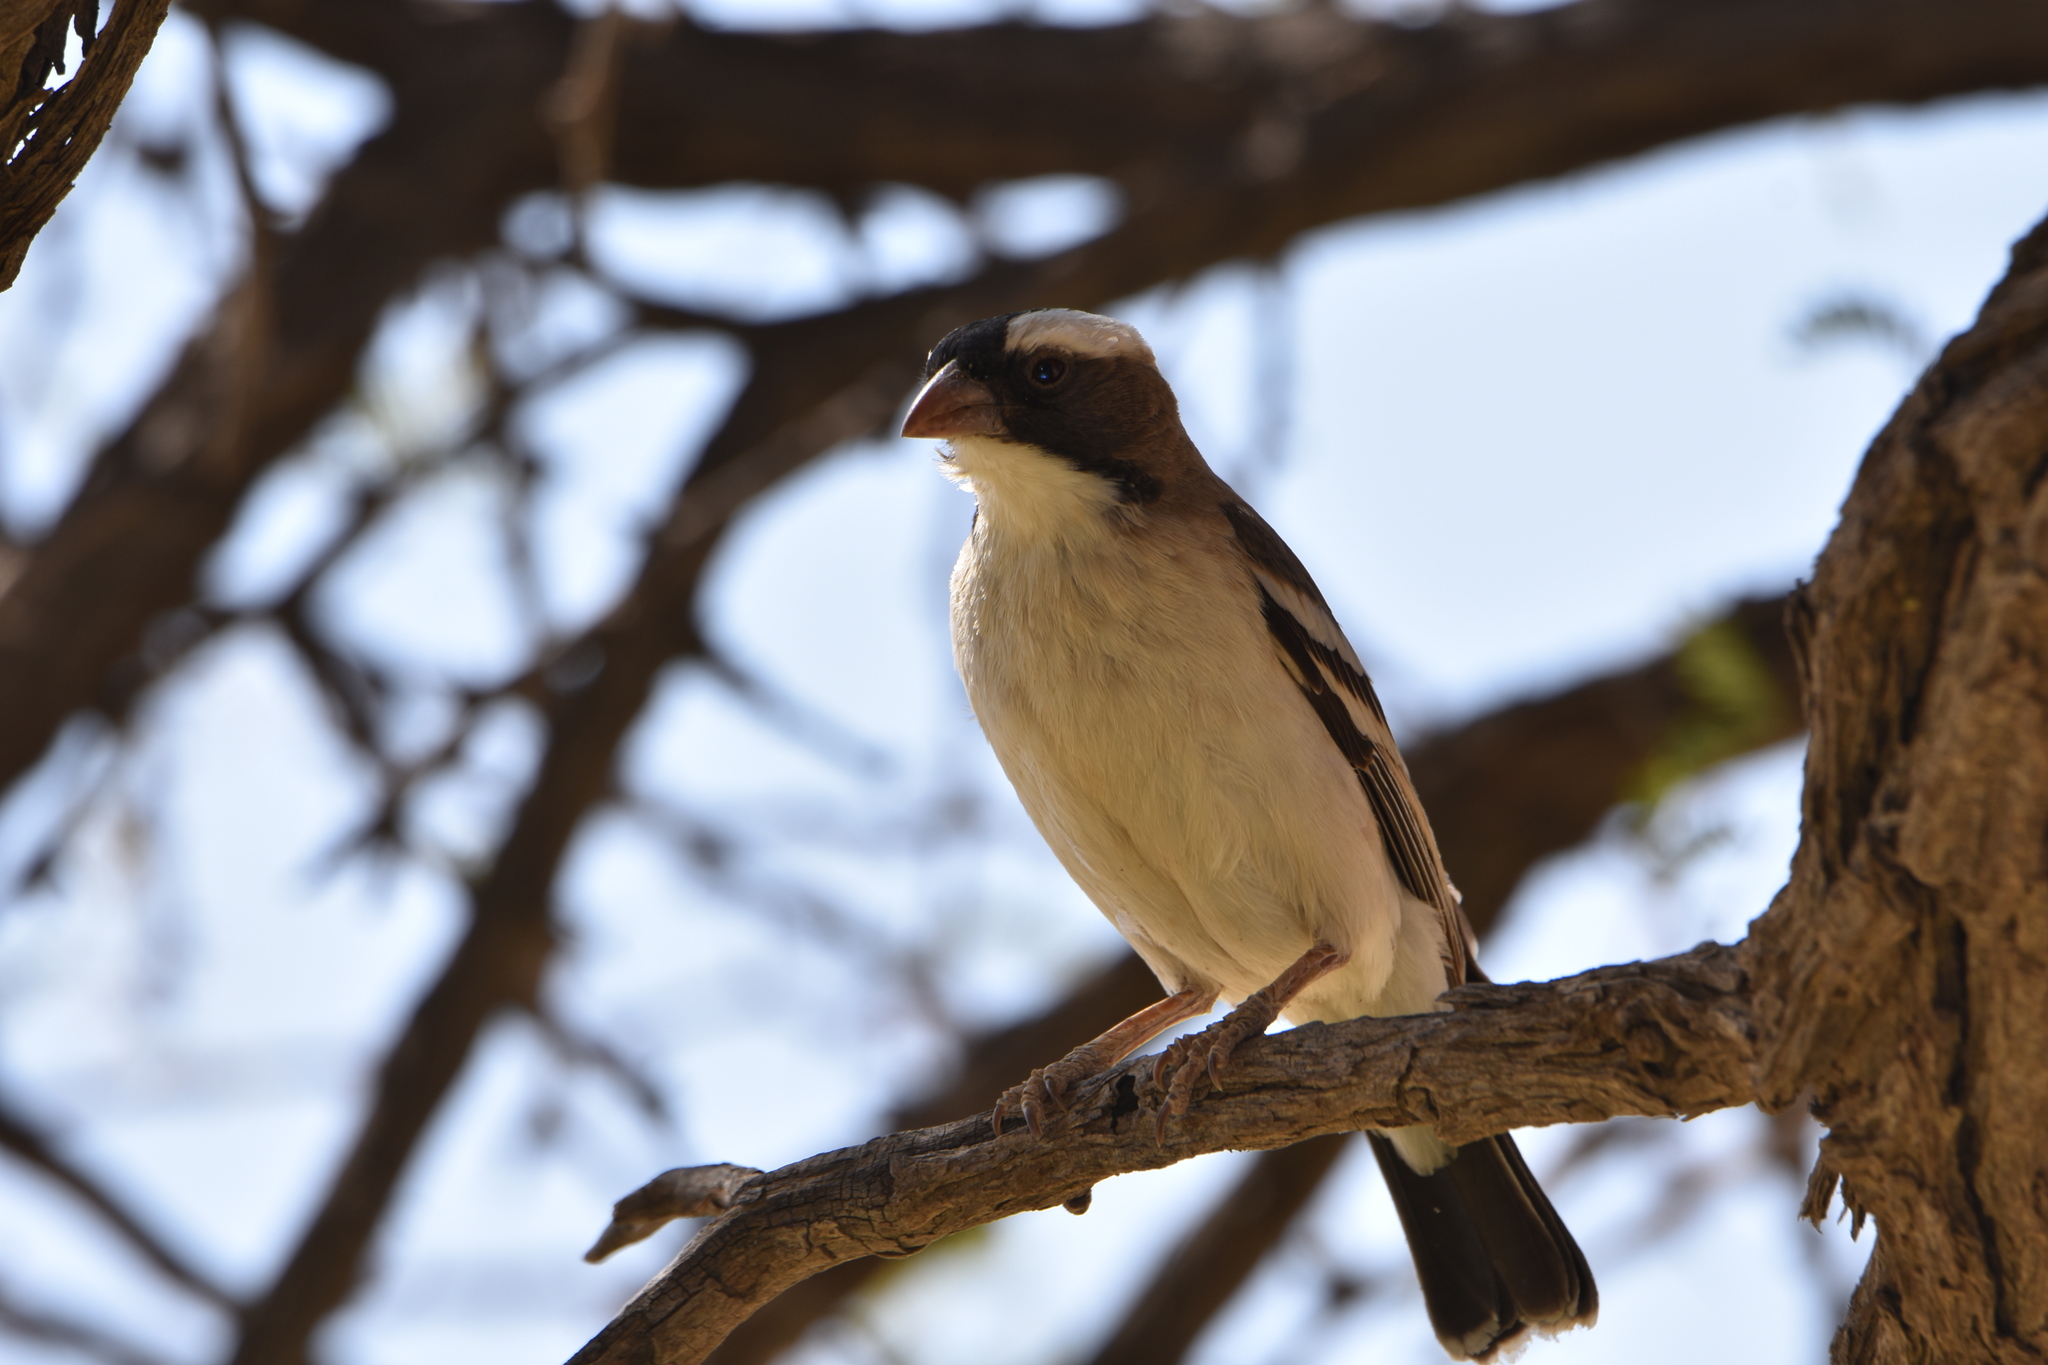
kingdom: Animalia
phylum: Chordata
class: Aves
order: Passeriformes
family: Passeridae
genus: Plocepasser
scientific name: Plocepasser mahali
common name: White-browed sparrow-weaver
